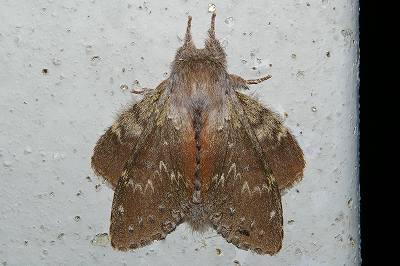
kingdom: Animalia
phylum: Arthropoda
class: Insecta
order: Lepidoptera
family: Notodontidae
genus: Stauropus
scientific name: Stauropus fagi
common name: Lobster moth
